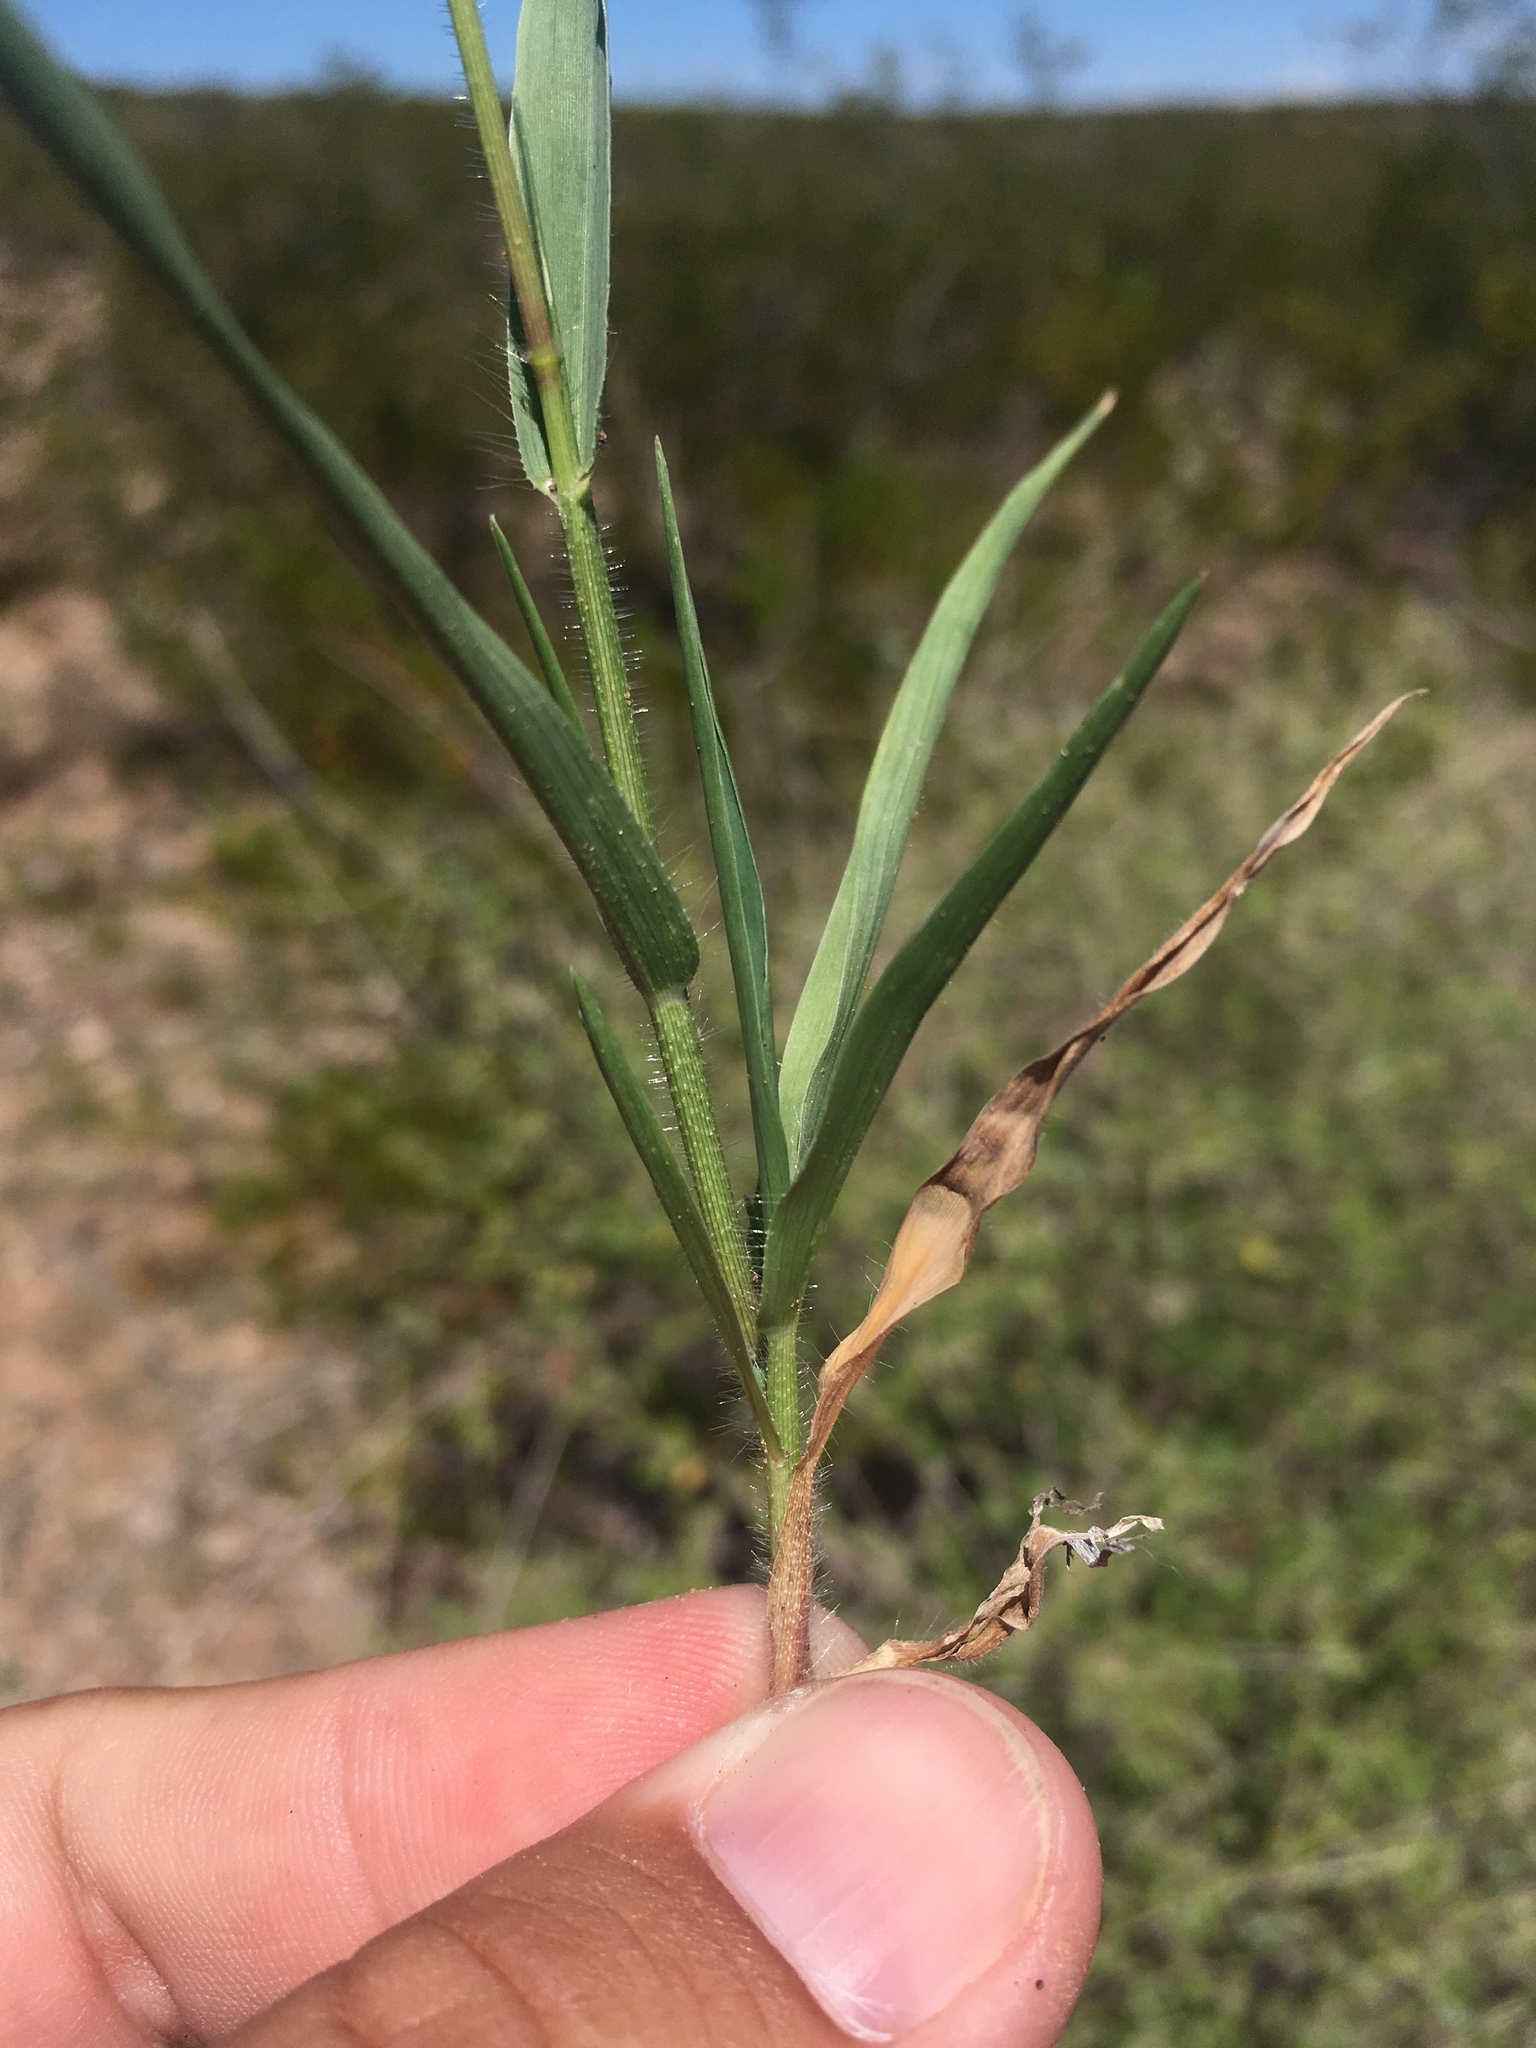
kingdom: Plantae
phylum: Tracheophyta
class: Liliopsida
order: Poales
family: Poaceae
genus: Panicum
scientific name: Panicum hirticaule
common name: Rough-stalk witchgrass
